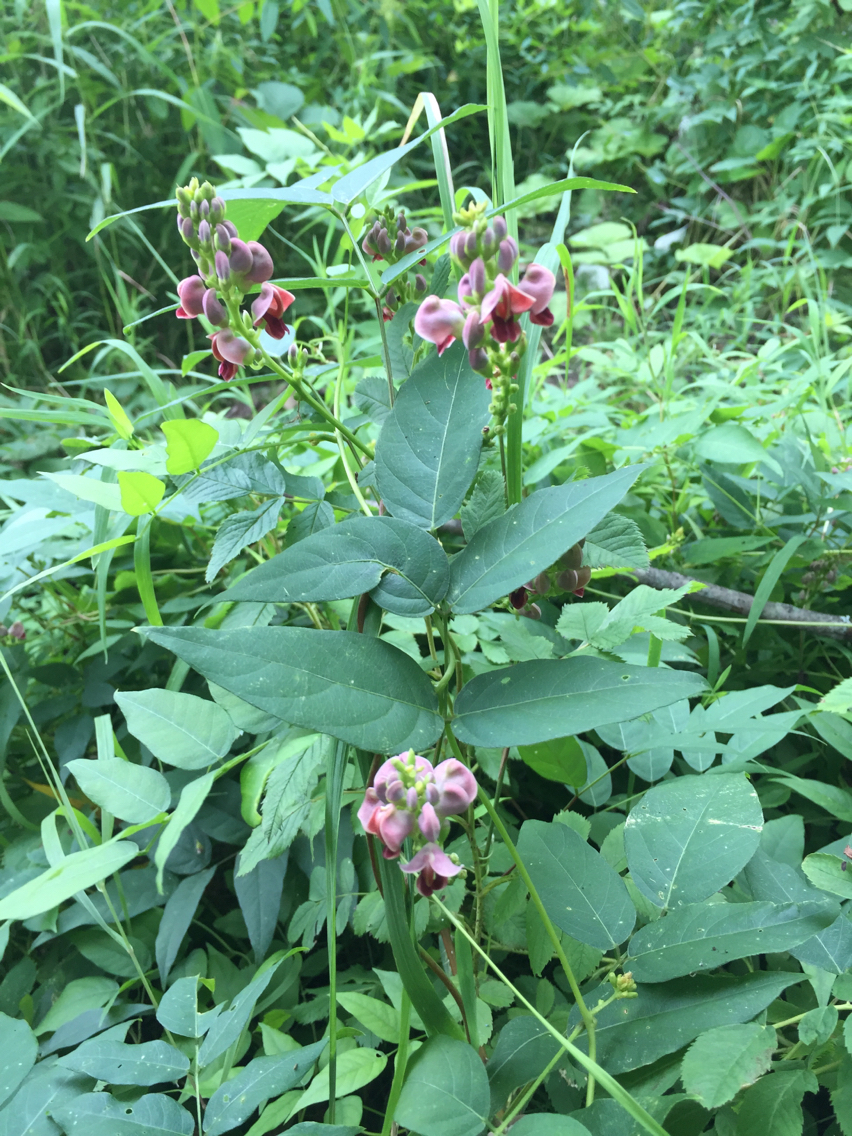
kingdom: Plantae
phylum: Tracheophyta
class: Magnoliopsida
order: Fabales
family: Fabaceae
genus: Apios
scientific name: Apios americana
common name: American potato-bean
